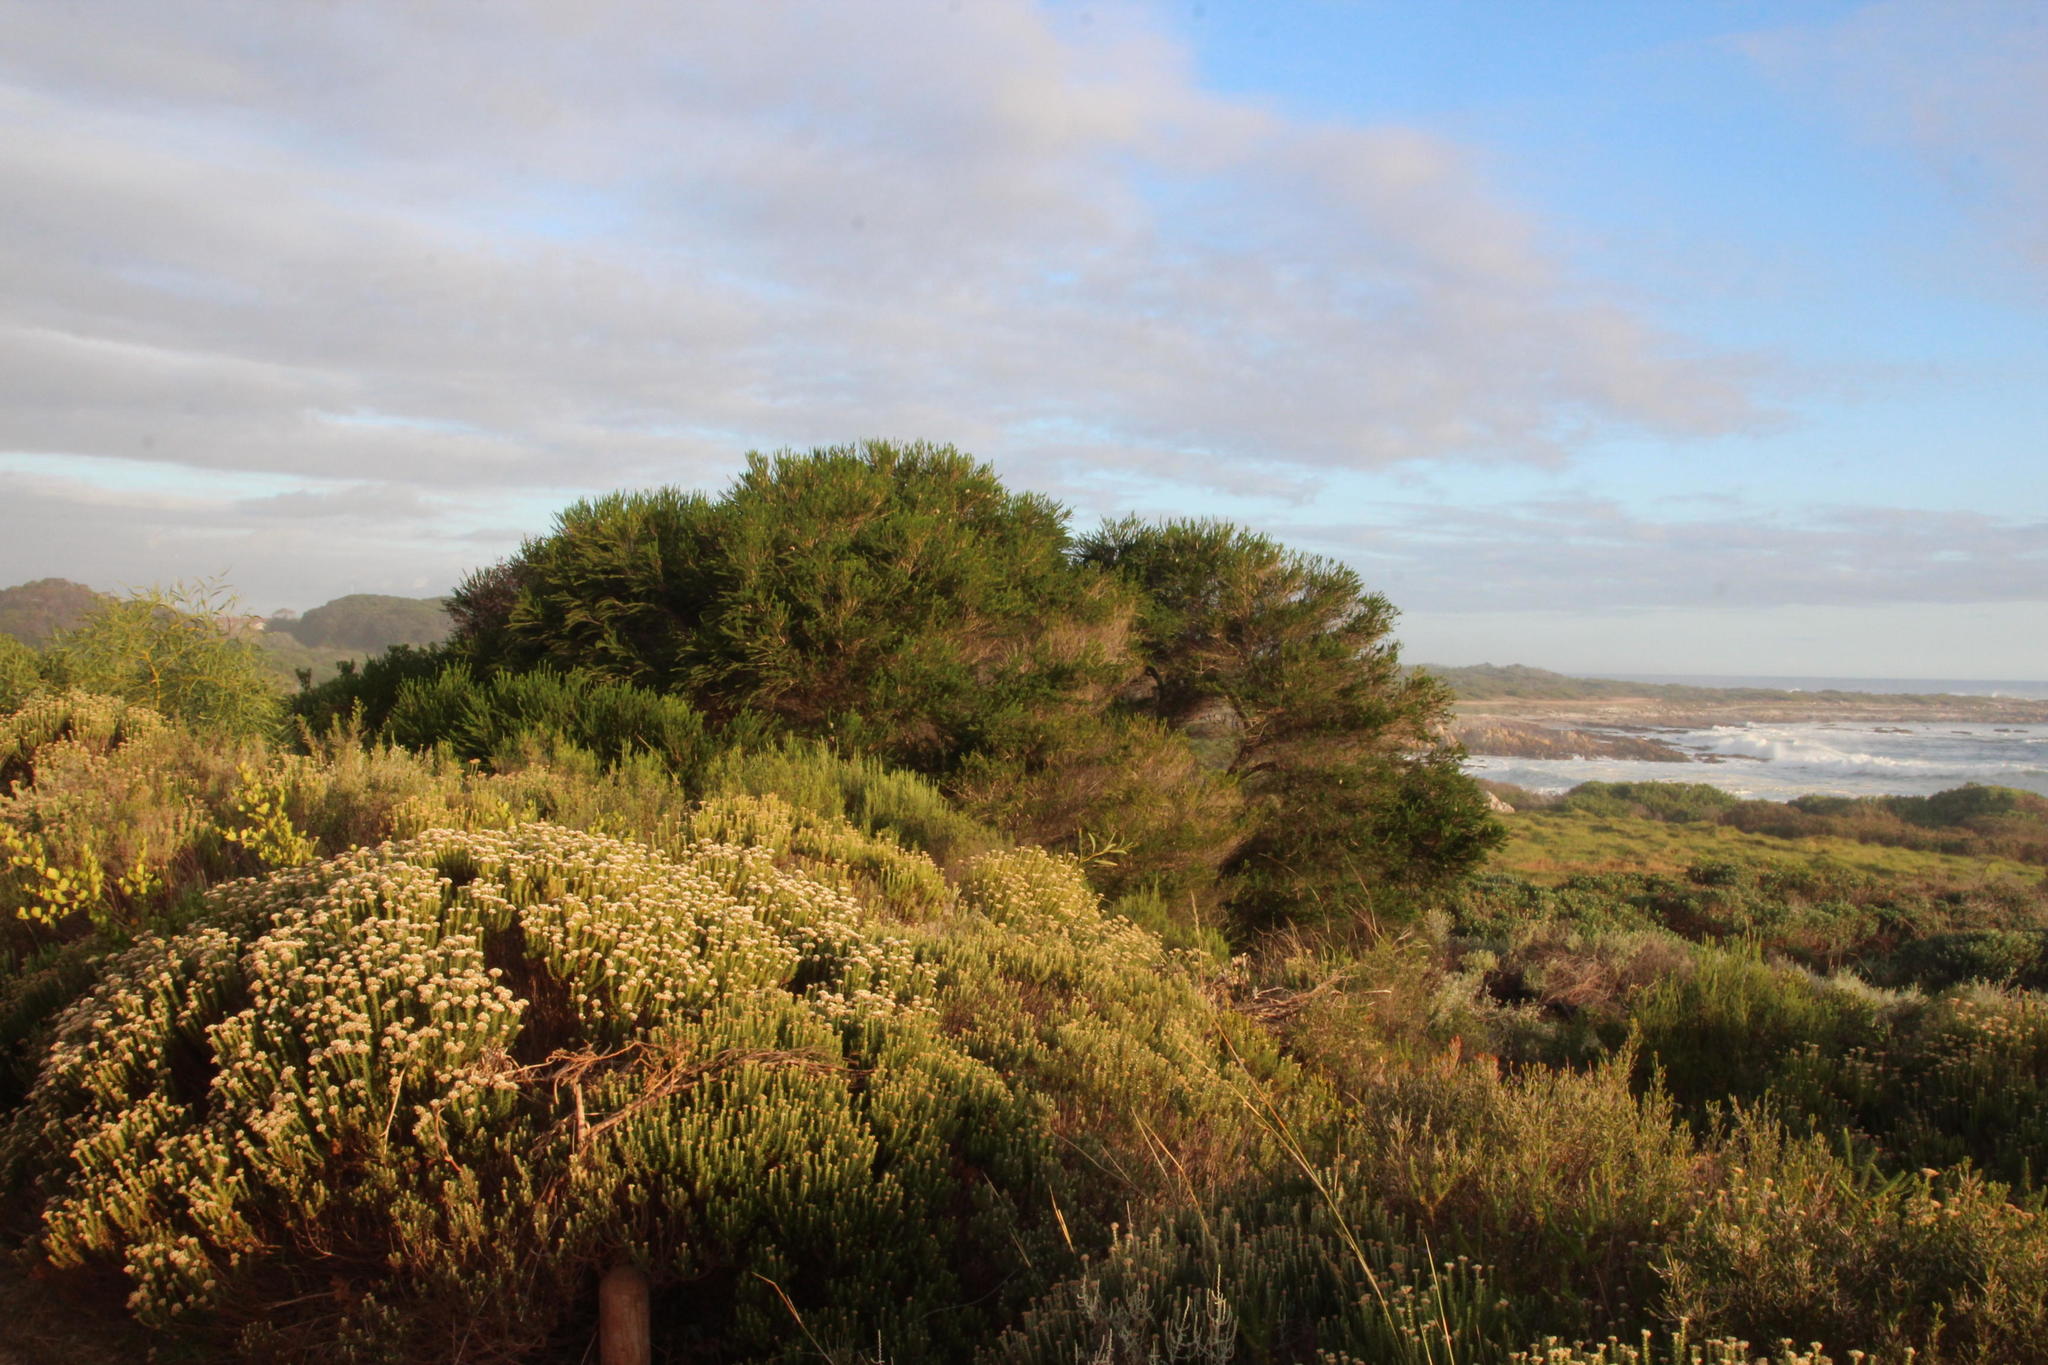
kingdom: Plantae
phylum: Tracheophyta
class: Magnoliopsida
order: Myrtales
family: Myrtaceae
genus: Melaleuca
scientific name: Melaleuca armillaris
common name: Bracelet honey myrtle
